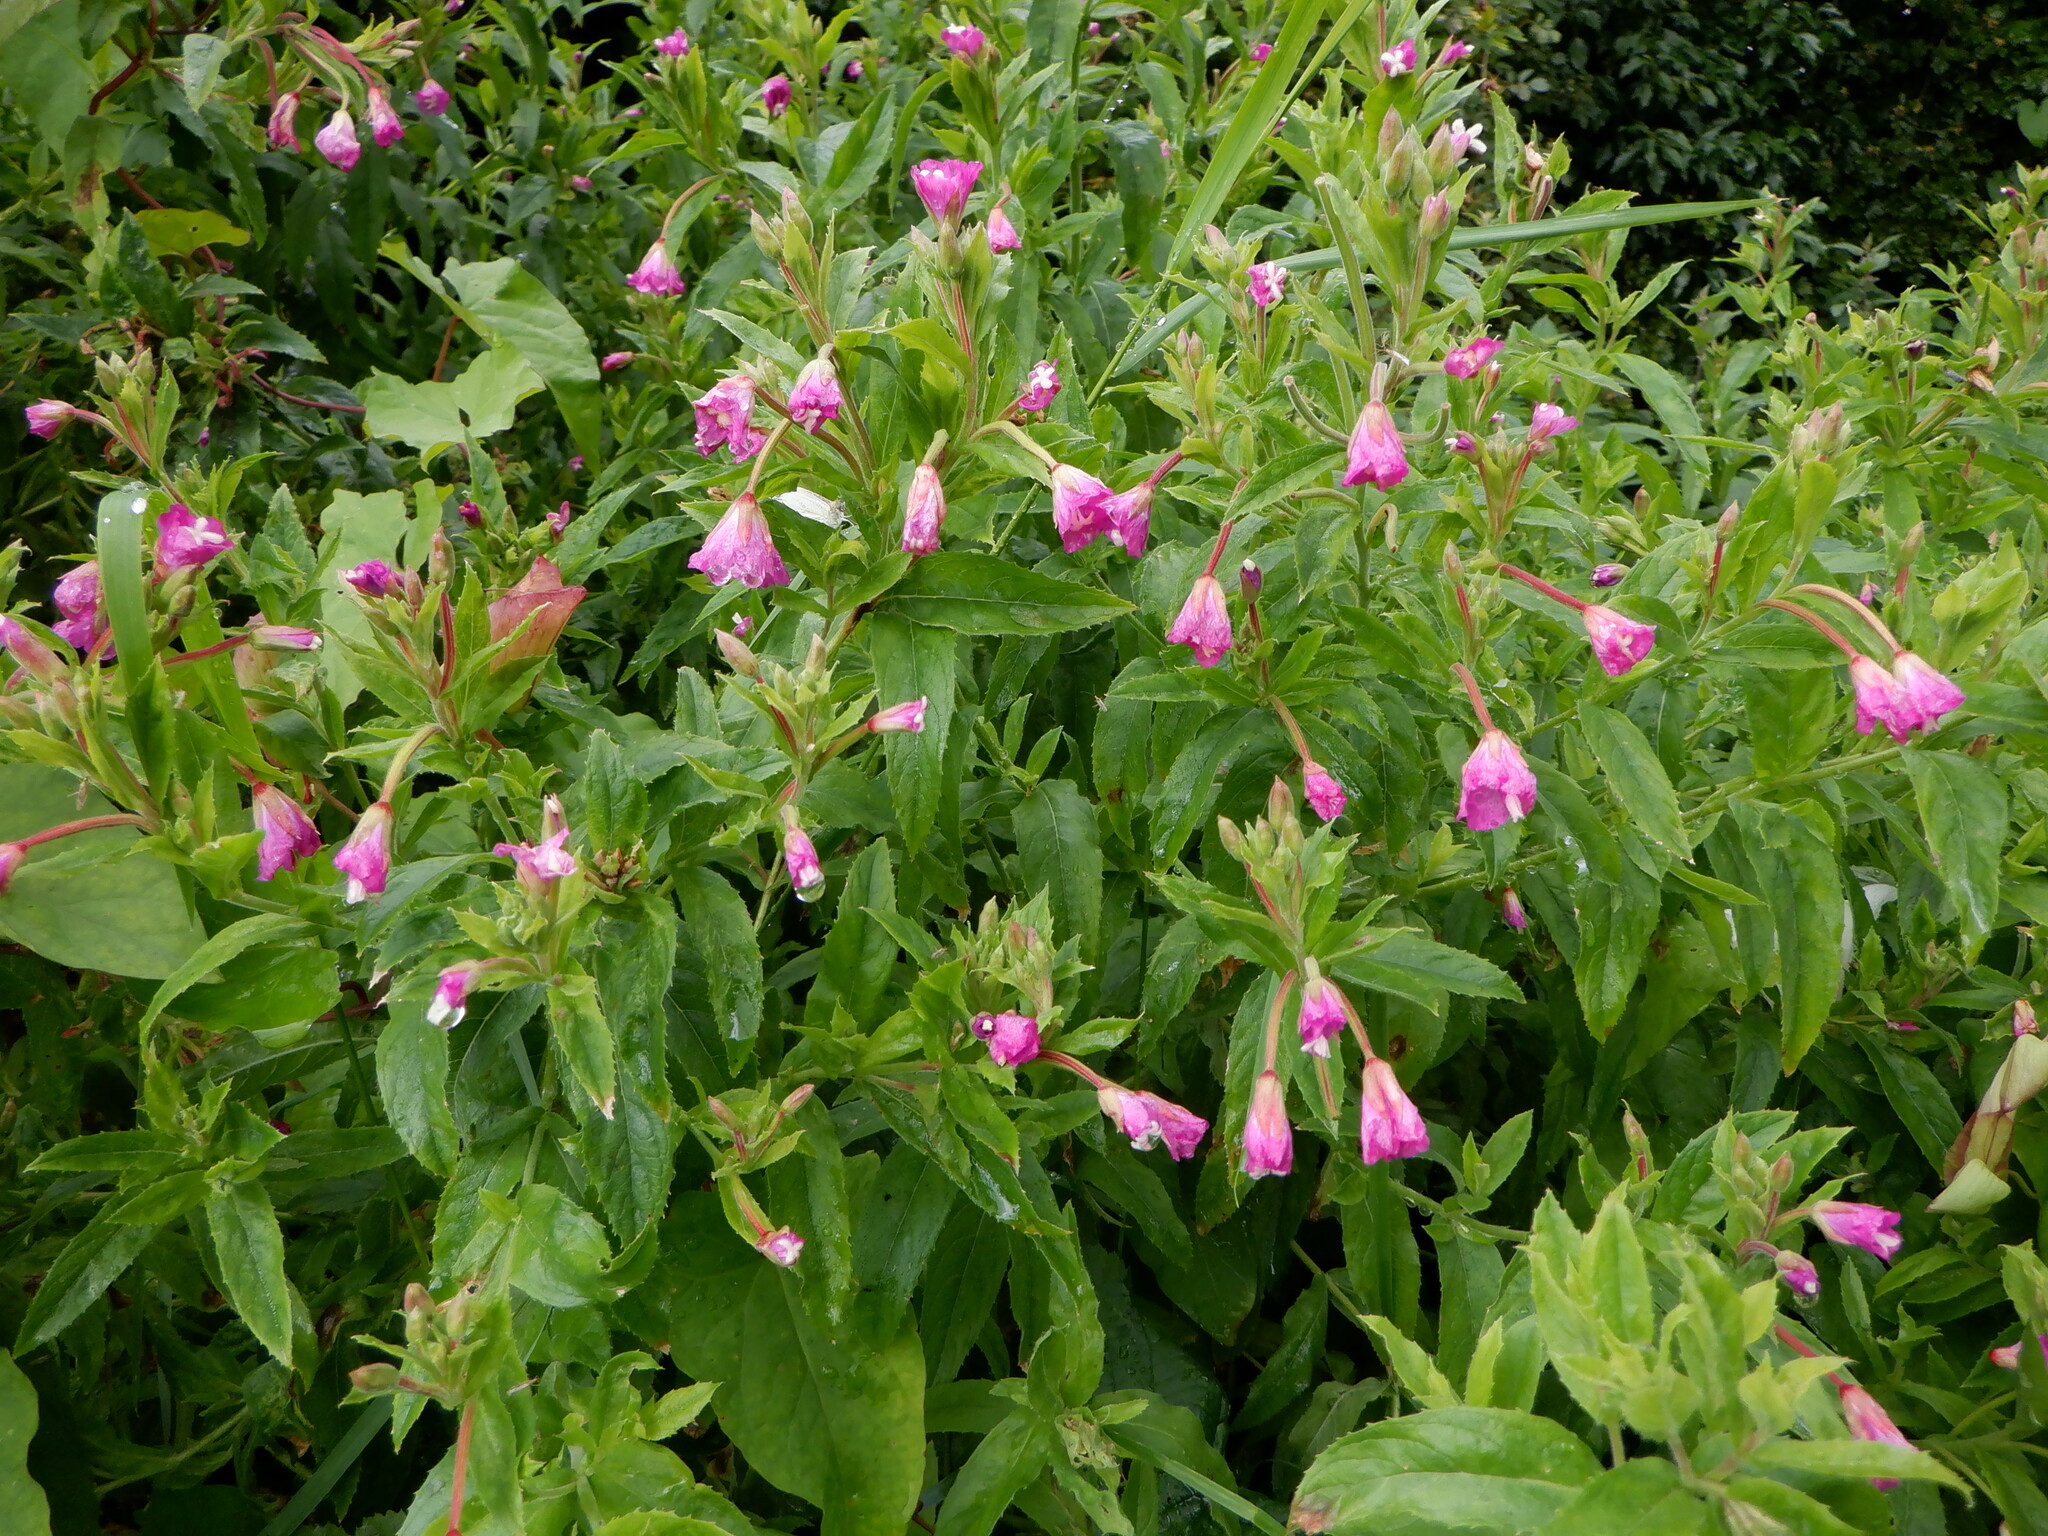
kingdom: Plantae
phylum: Tracheophyta
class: Magnoliopsida
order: Myrtales
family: Onagraceae
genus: Epilobium
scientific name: Epilobium hirsutum
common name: Great willowherb
